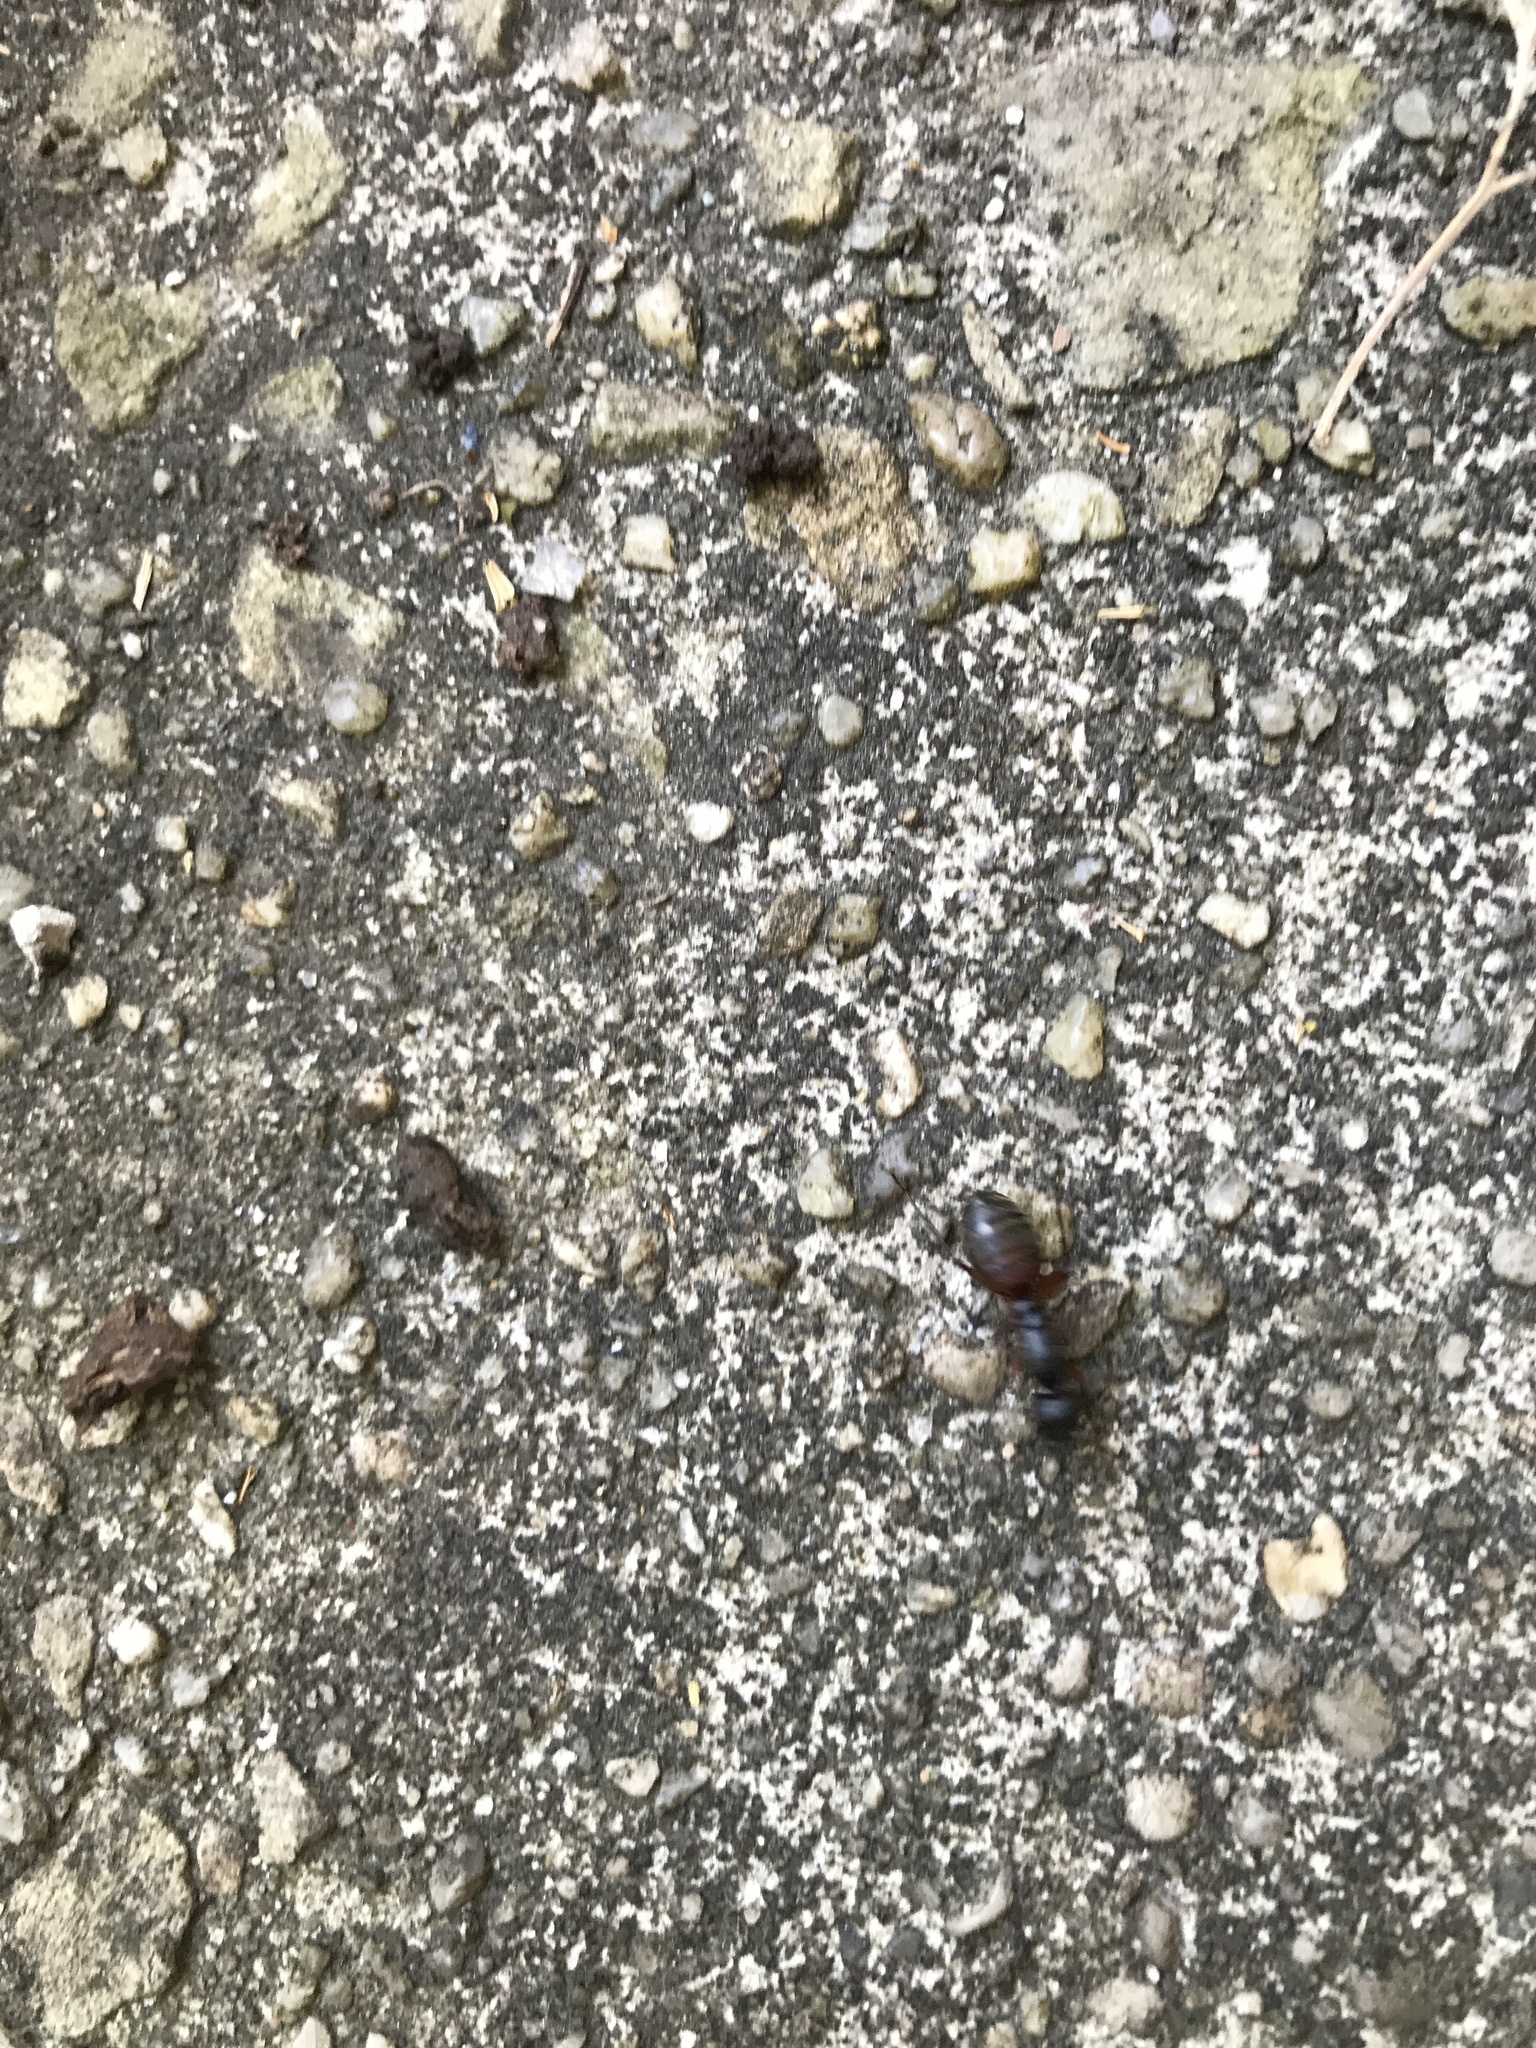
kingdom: Animalia
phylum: Arthropoda
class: Insecta
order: Hymenoptera
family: Formicidae
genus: Camponotus
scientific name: Camponotus chromaiodes
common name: Red carpenter ant
